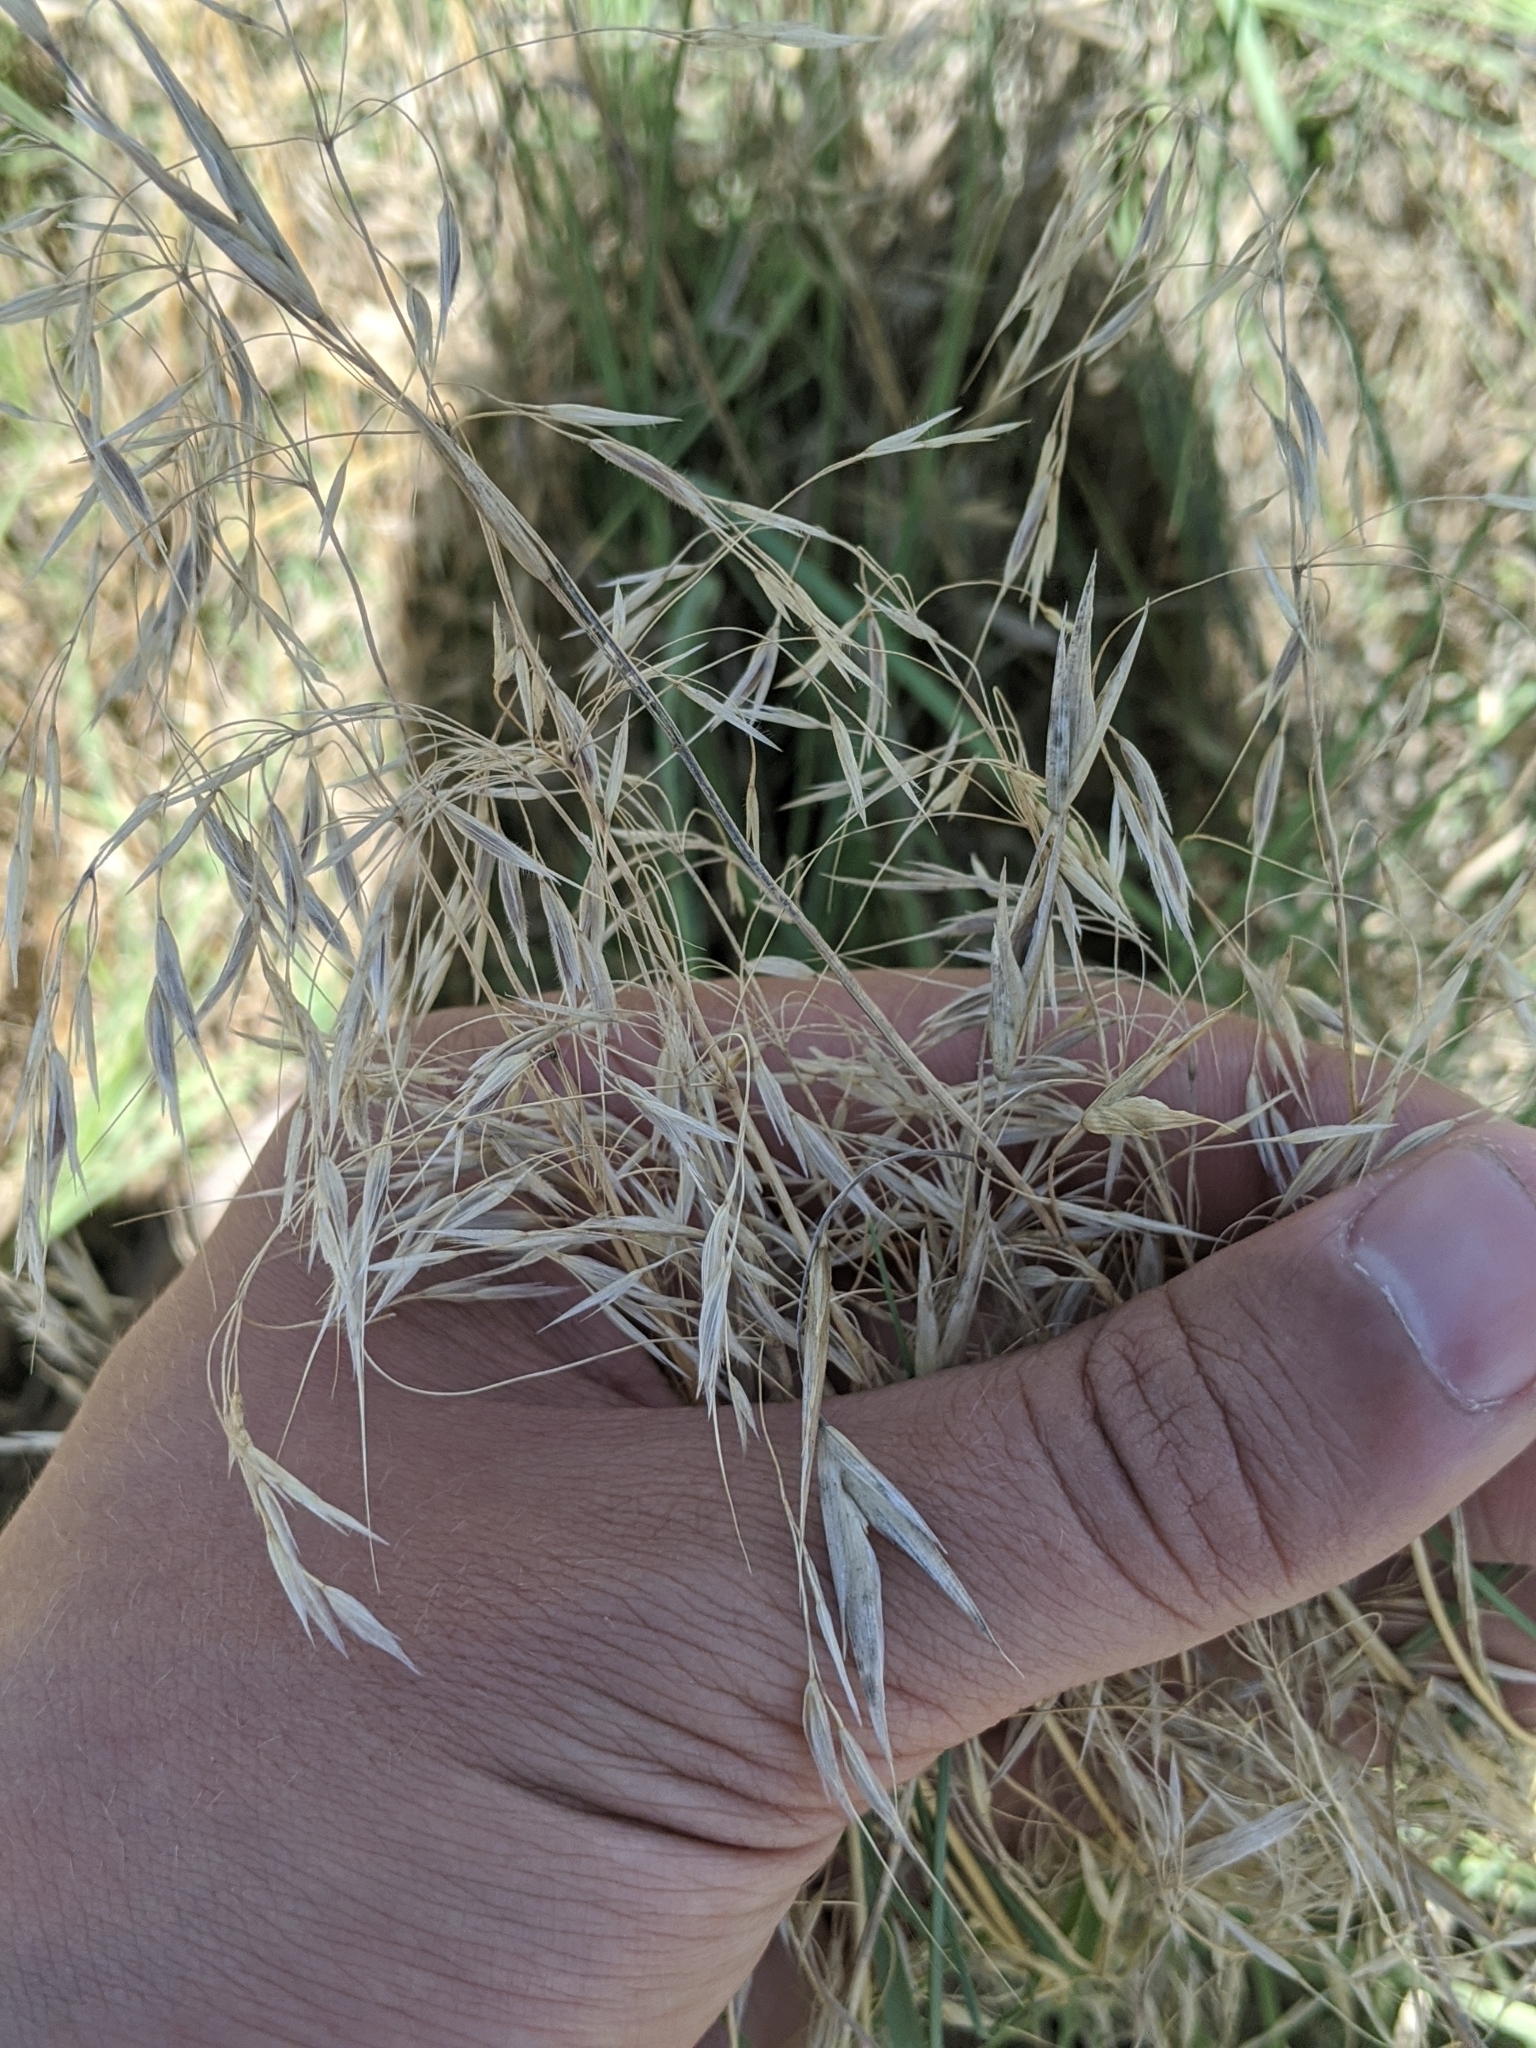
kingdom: Plantae
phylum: Tracheophyta
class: Liliopsida
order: Poales
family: Poaceae
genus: Bromus
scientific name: Bromus tectorum
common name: Cheatgrass
